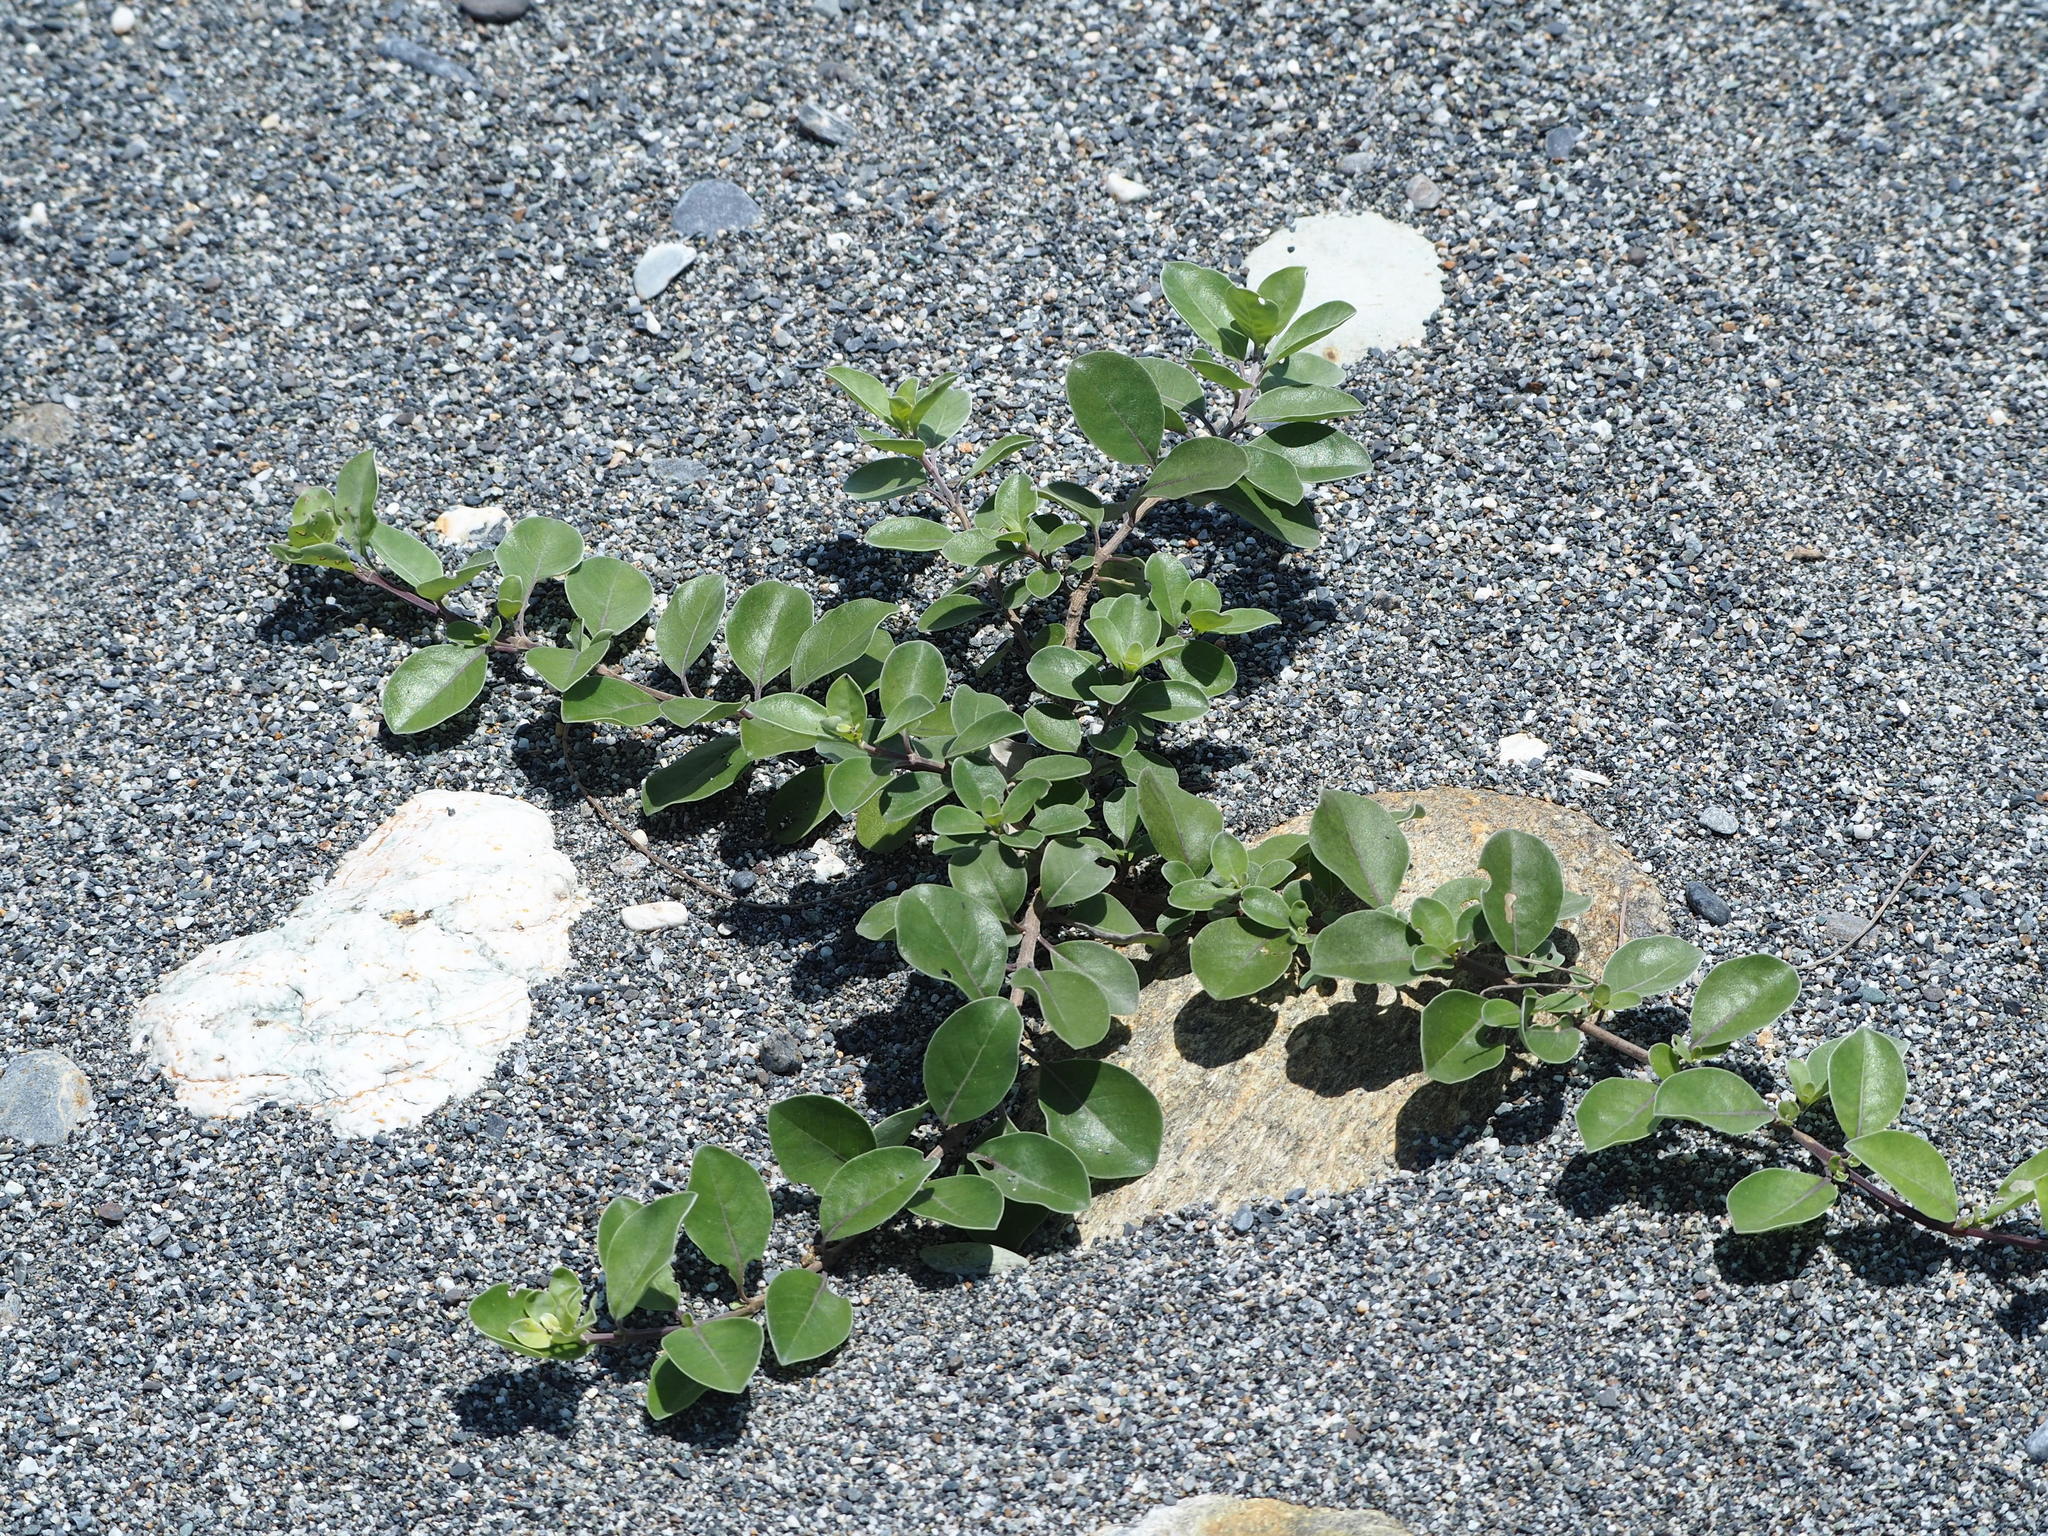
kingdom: Plantae
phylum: Tracheophyta
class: Magnoliopsida
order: Lamiales
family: Lamiaceae
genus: Vitex
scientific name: Vitex rotundifolia
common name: Beach vitex
